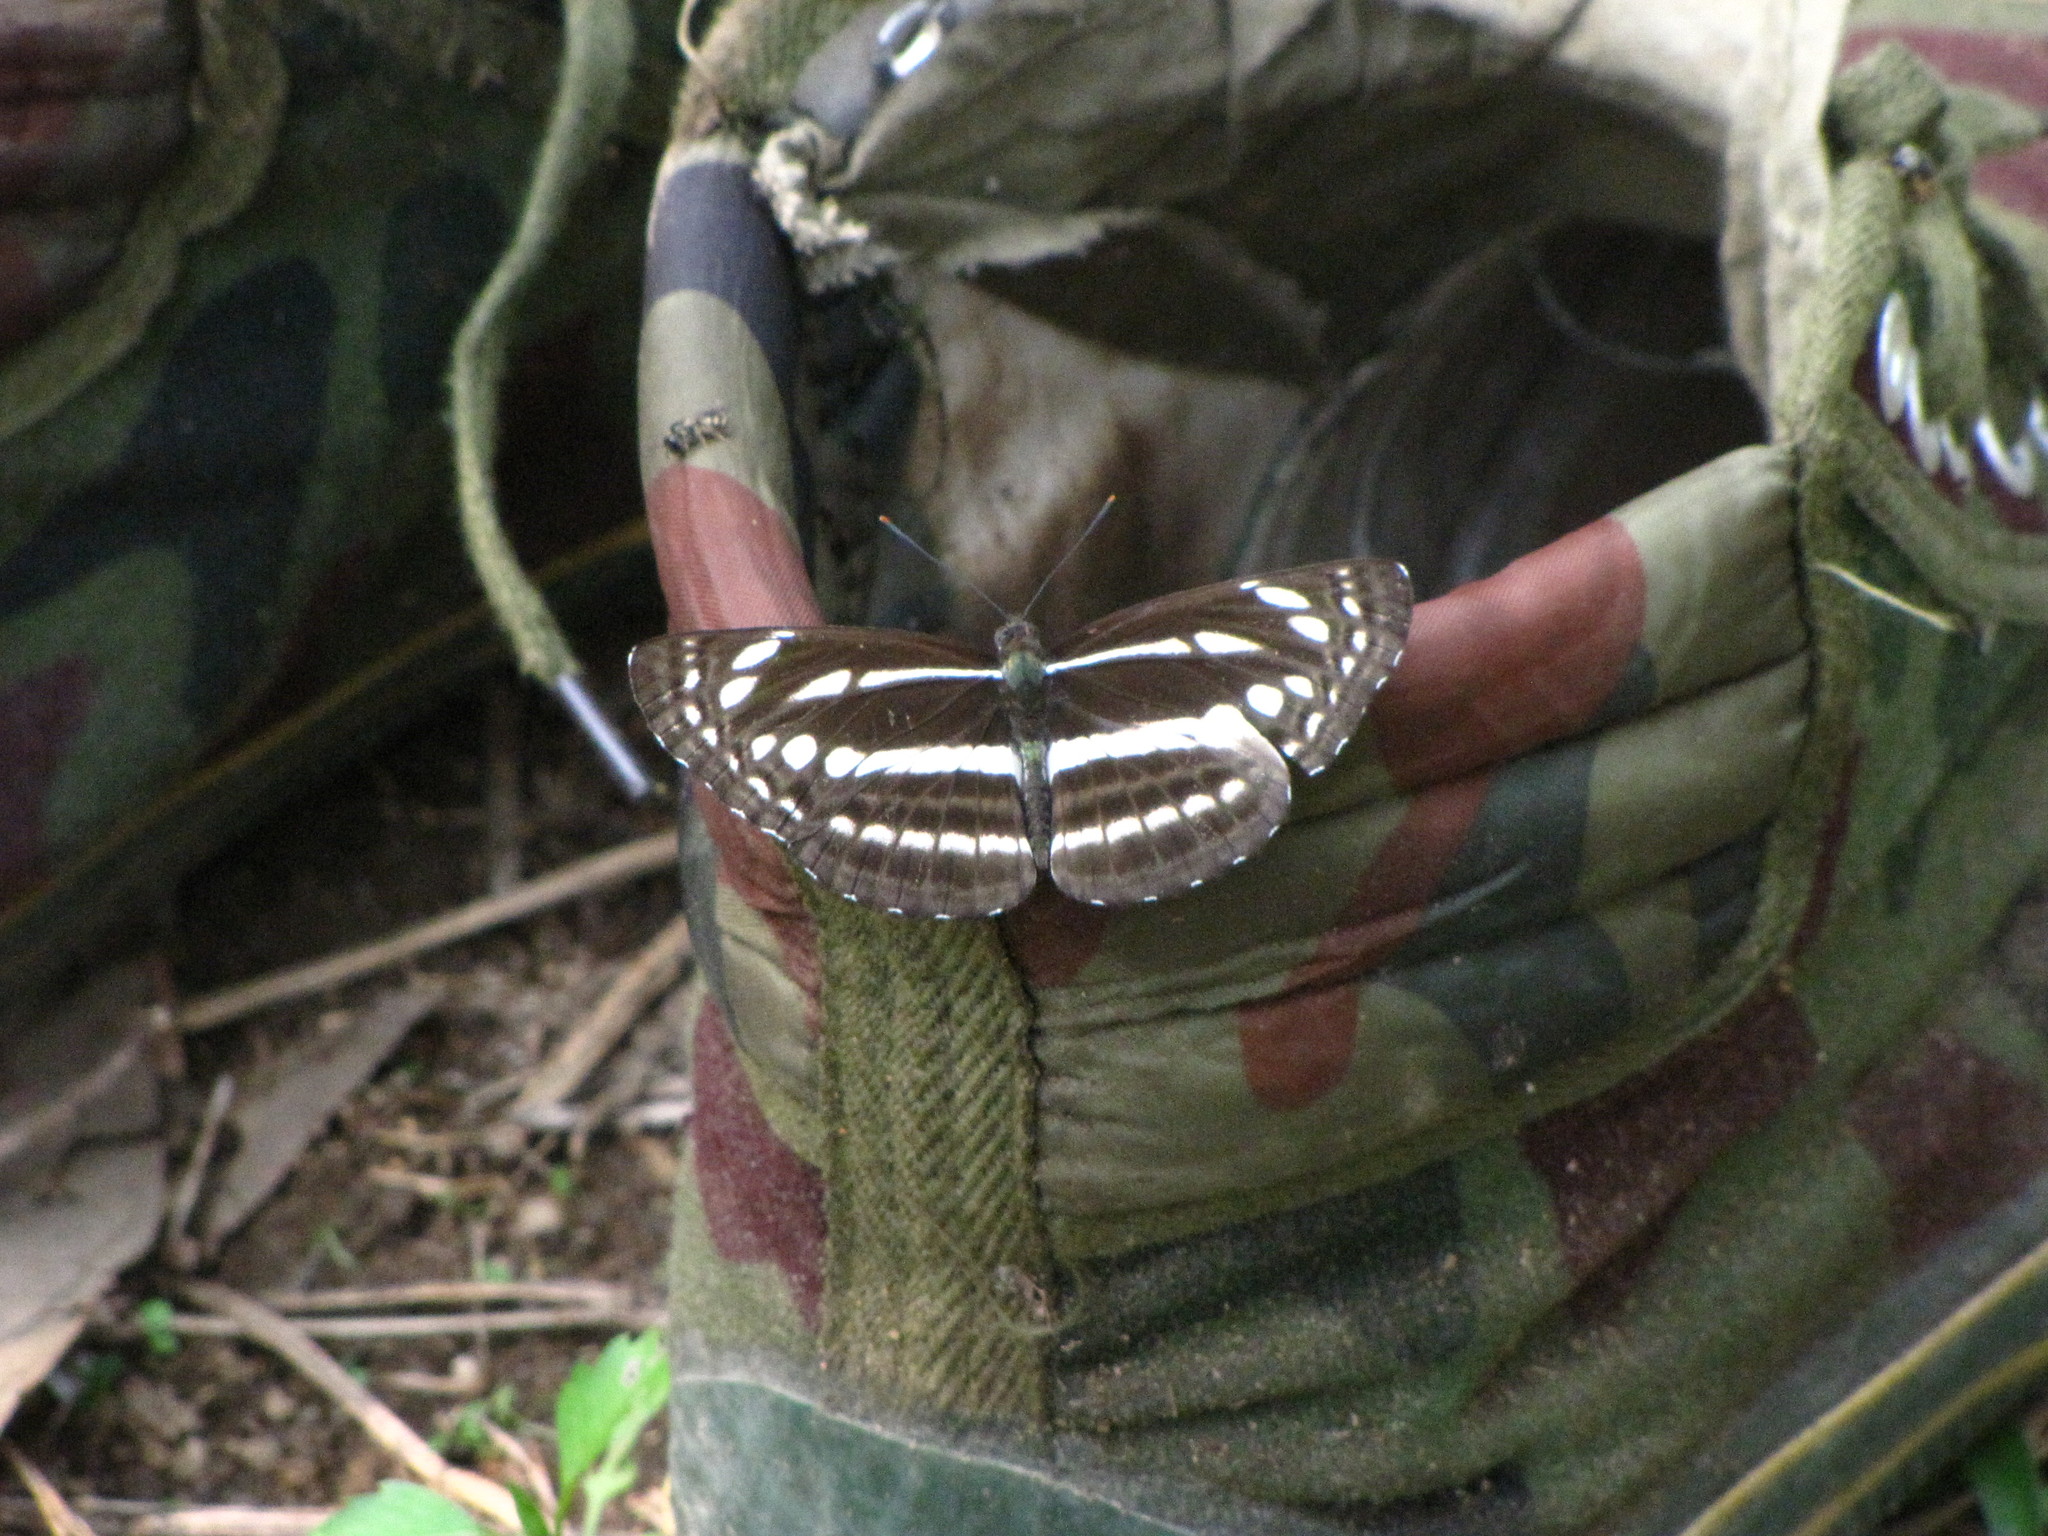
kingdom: Animalia
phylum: Arthropoda
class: Insecta
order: Lepidoptera
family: Nymphalidae
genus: Neptis
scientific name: Neptis nata
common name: Sullied brown sailer
